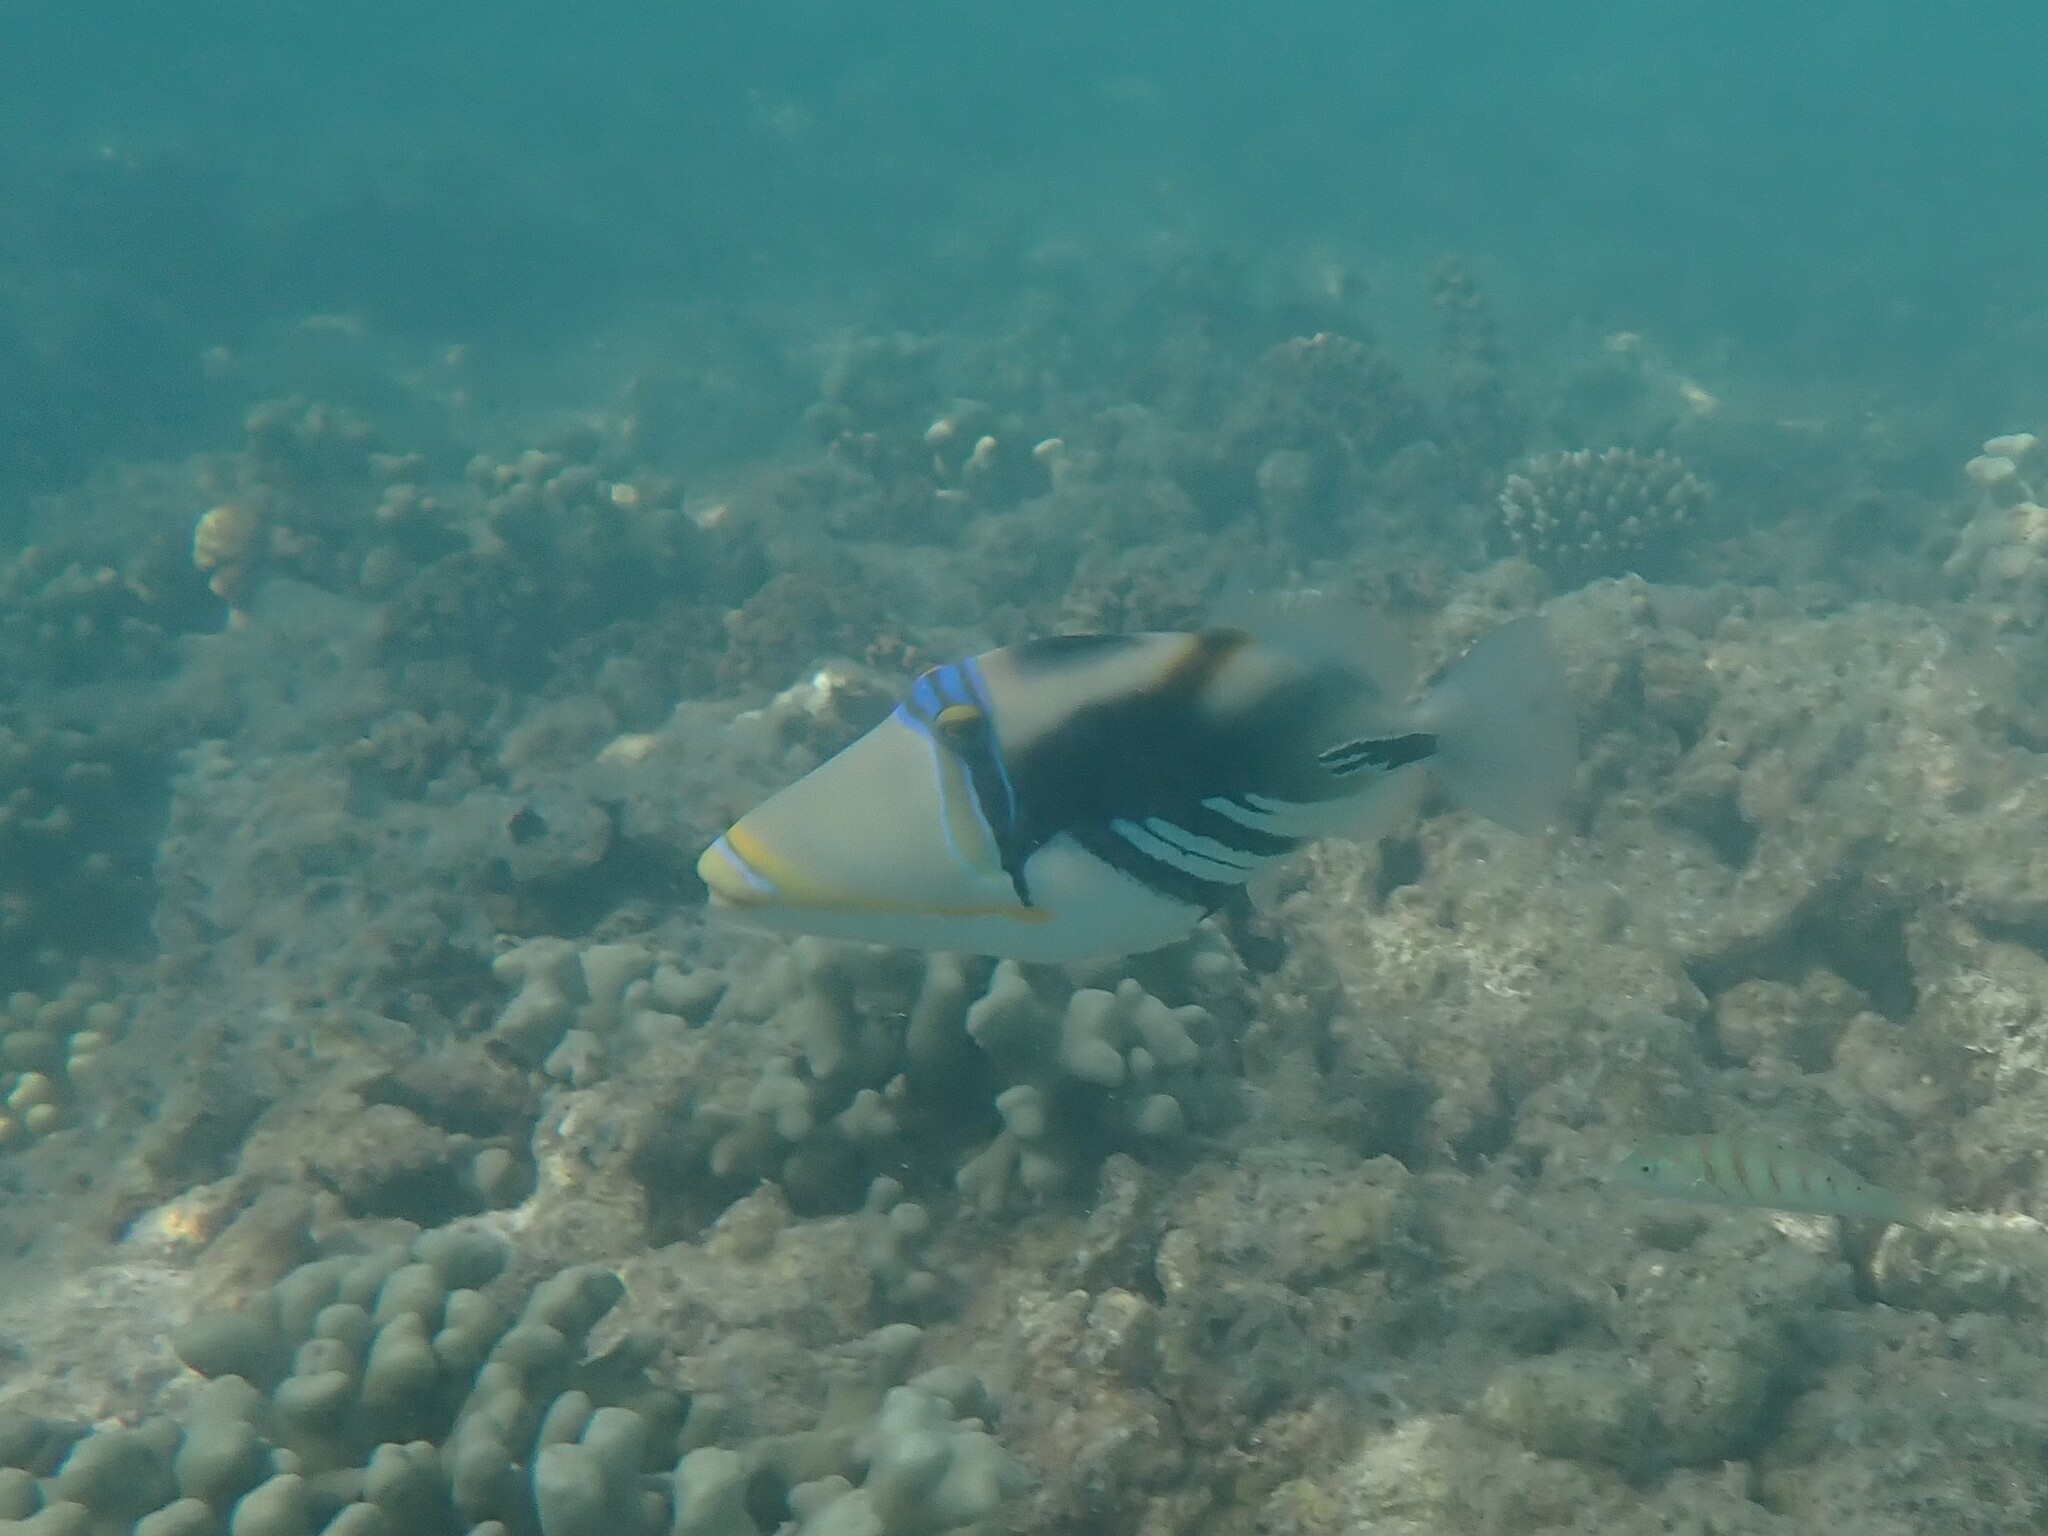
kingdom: Animalia
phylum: Chordata
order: Tetraodontiformes
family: Balistidae
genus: Rhinecanthus
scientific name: Rhinecanthus aculeatus
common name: White-banded triggerfish
